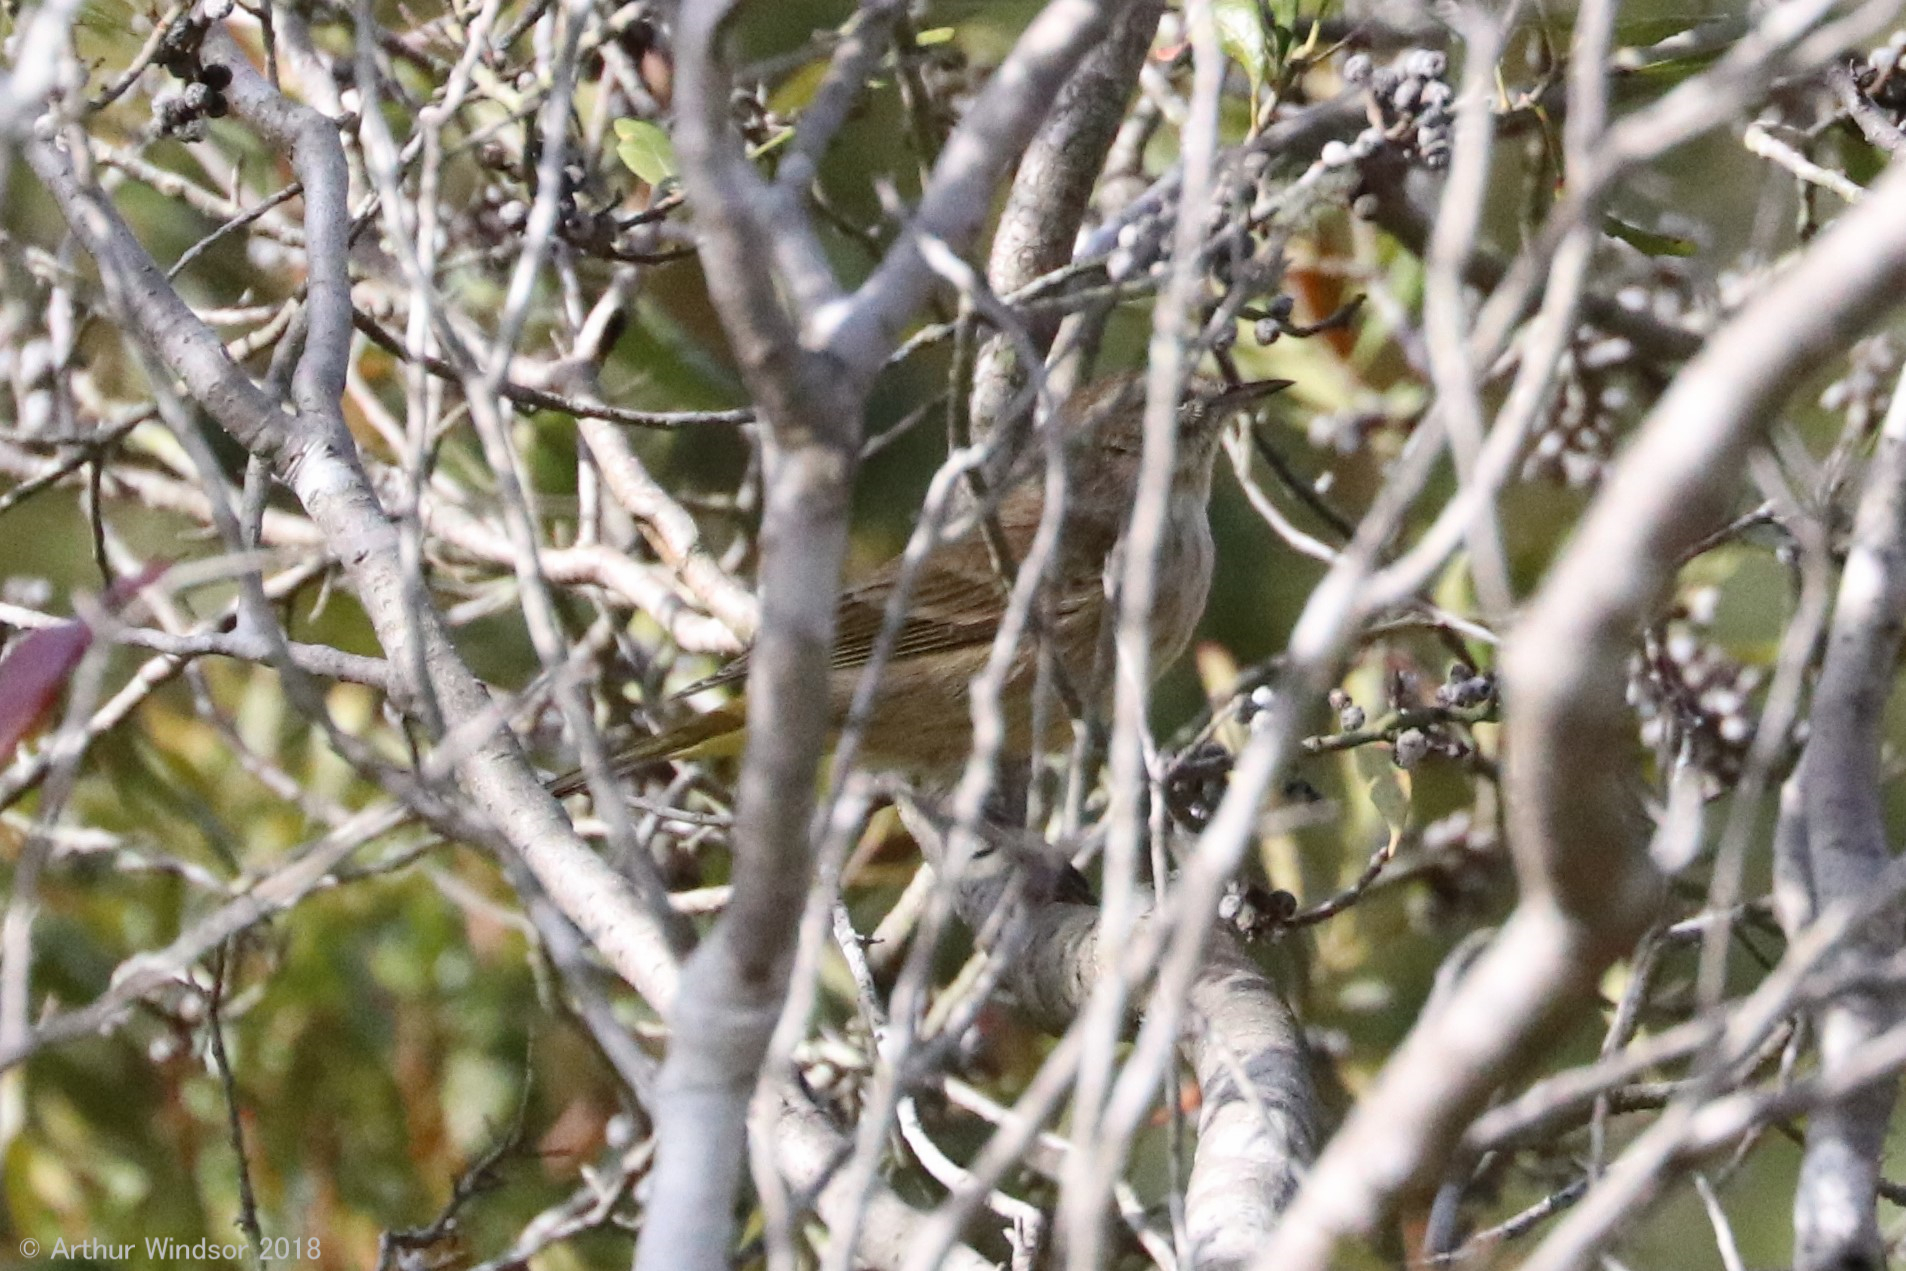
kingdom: Animalia
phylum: Chordata
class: Aves
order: Passeriformes
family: Parulidae
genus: Setophaga
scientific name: Setophaga palmarum
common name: Palm warbler
